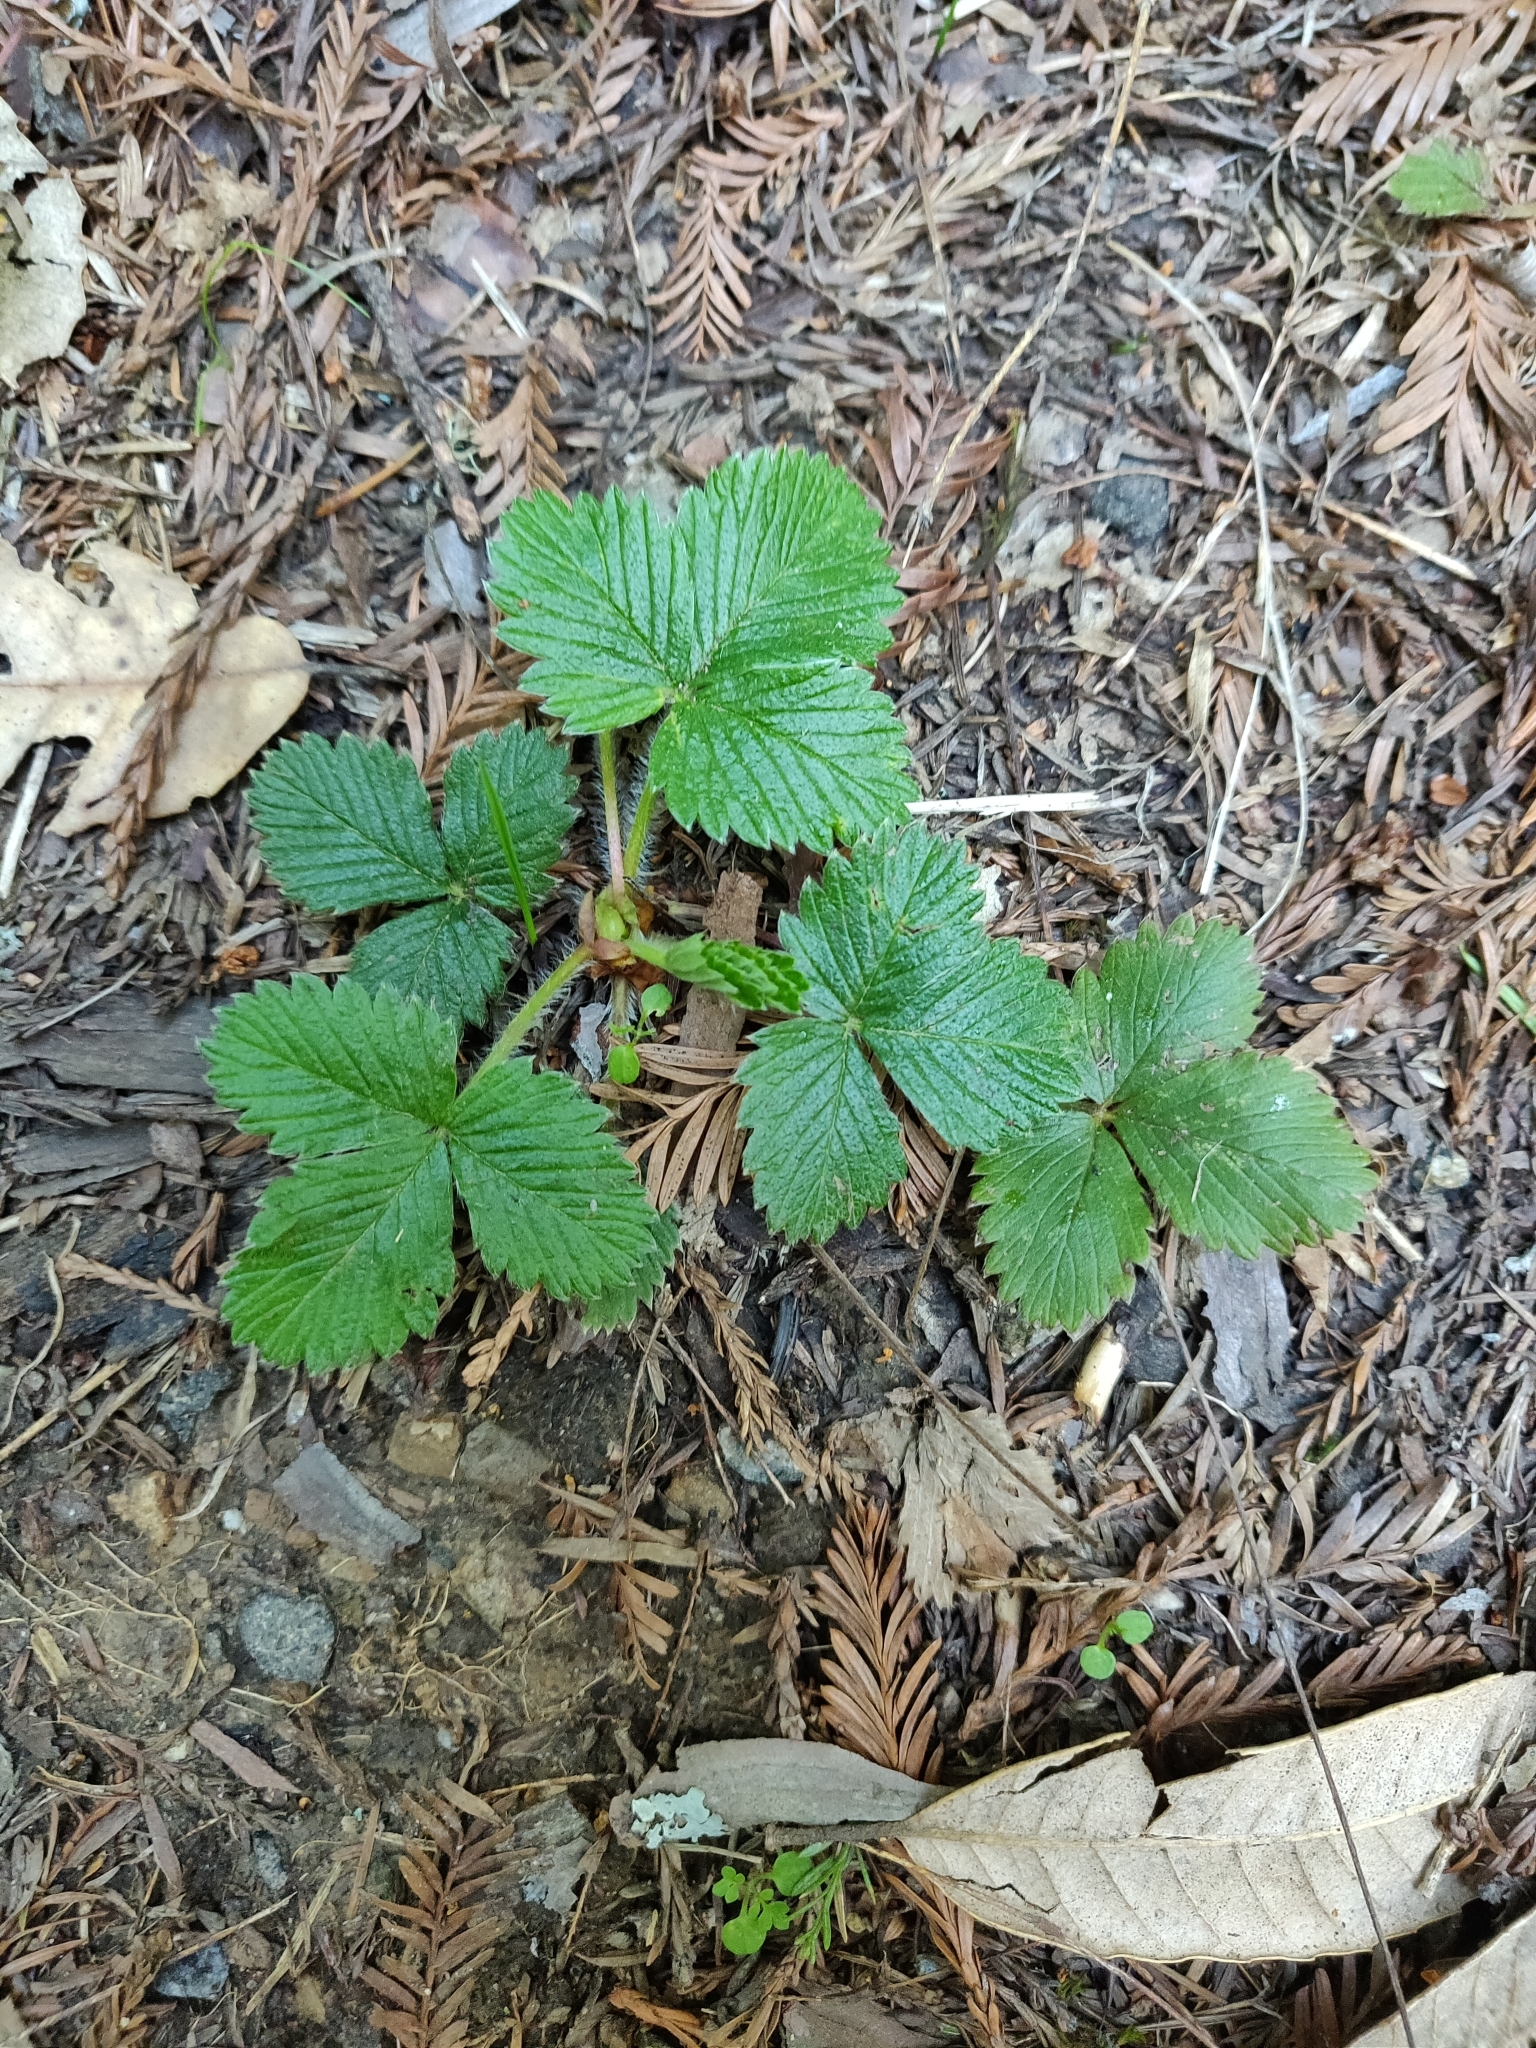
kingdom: Plantae
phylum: Tracheophyta
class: Magnoliopsida
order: Rosales
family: Rosaceae
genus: Fragaria
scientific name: Fragaria vesca
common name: Wild strawberry
